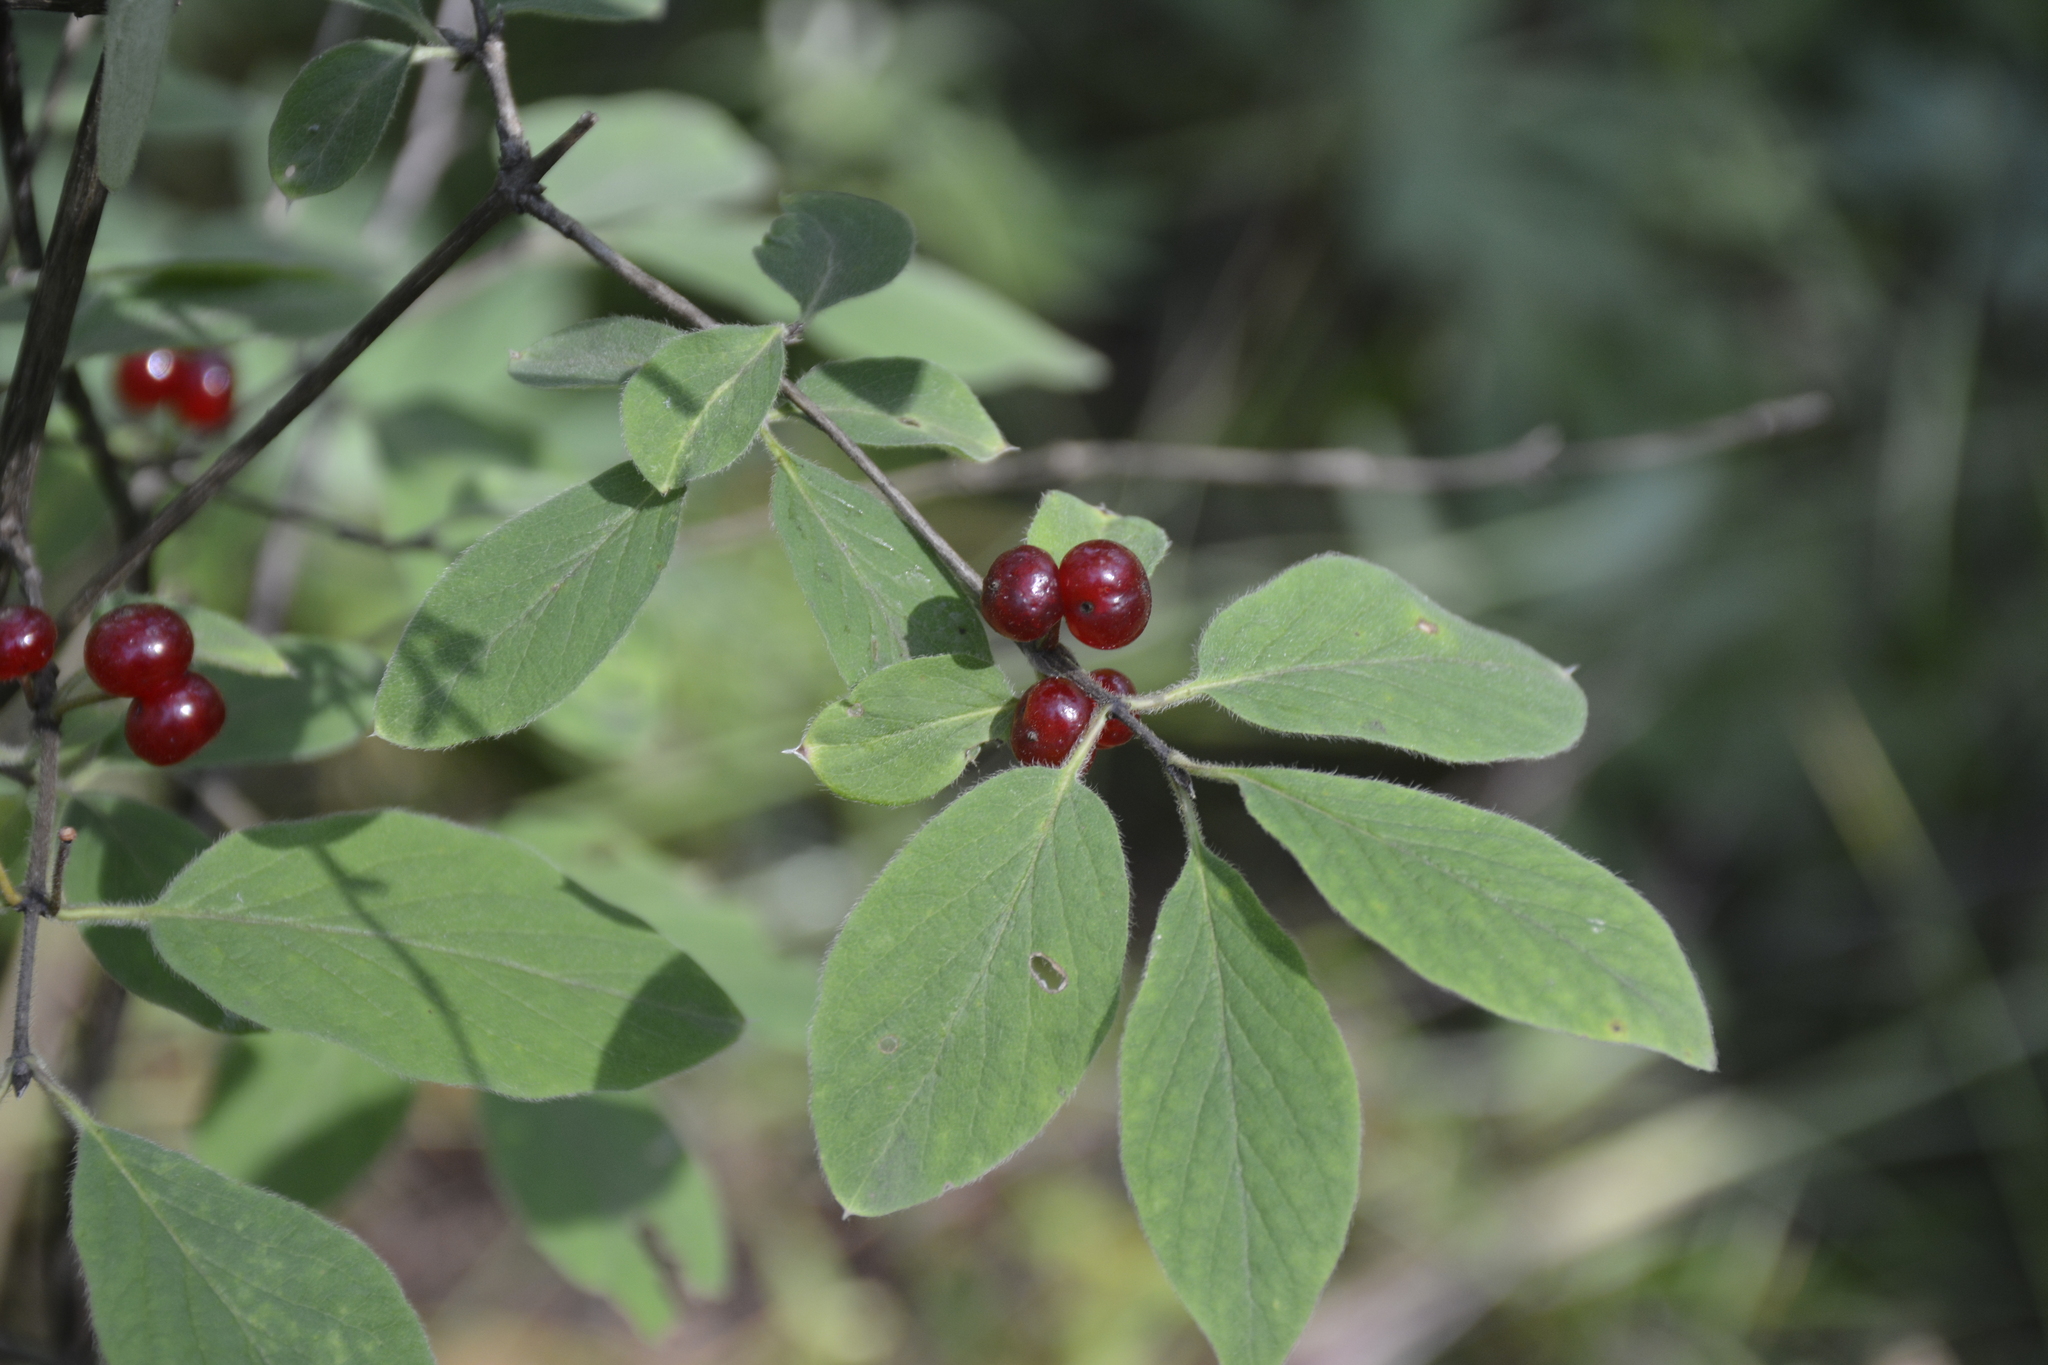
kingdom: Plantae
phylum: Tracheophyta
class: Magnoliopsida
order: Dipsacales
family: Caprifoliaceae
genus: Lonicera
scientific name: Lonicera xylosteum
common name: Fly honeysuckle
